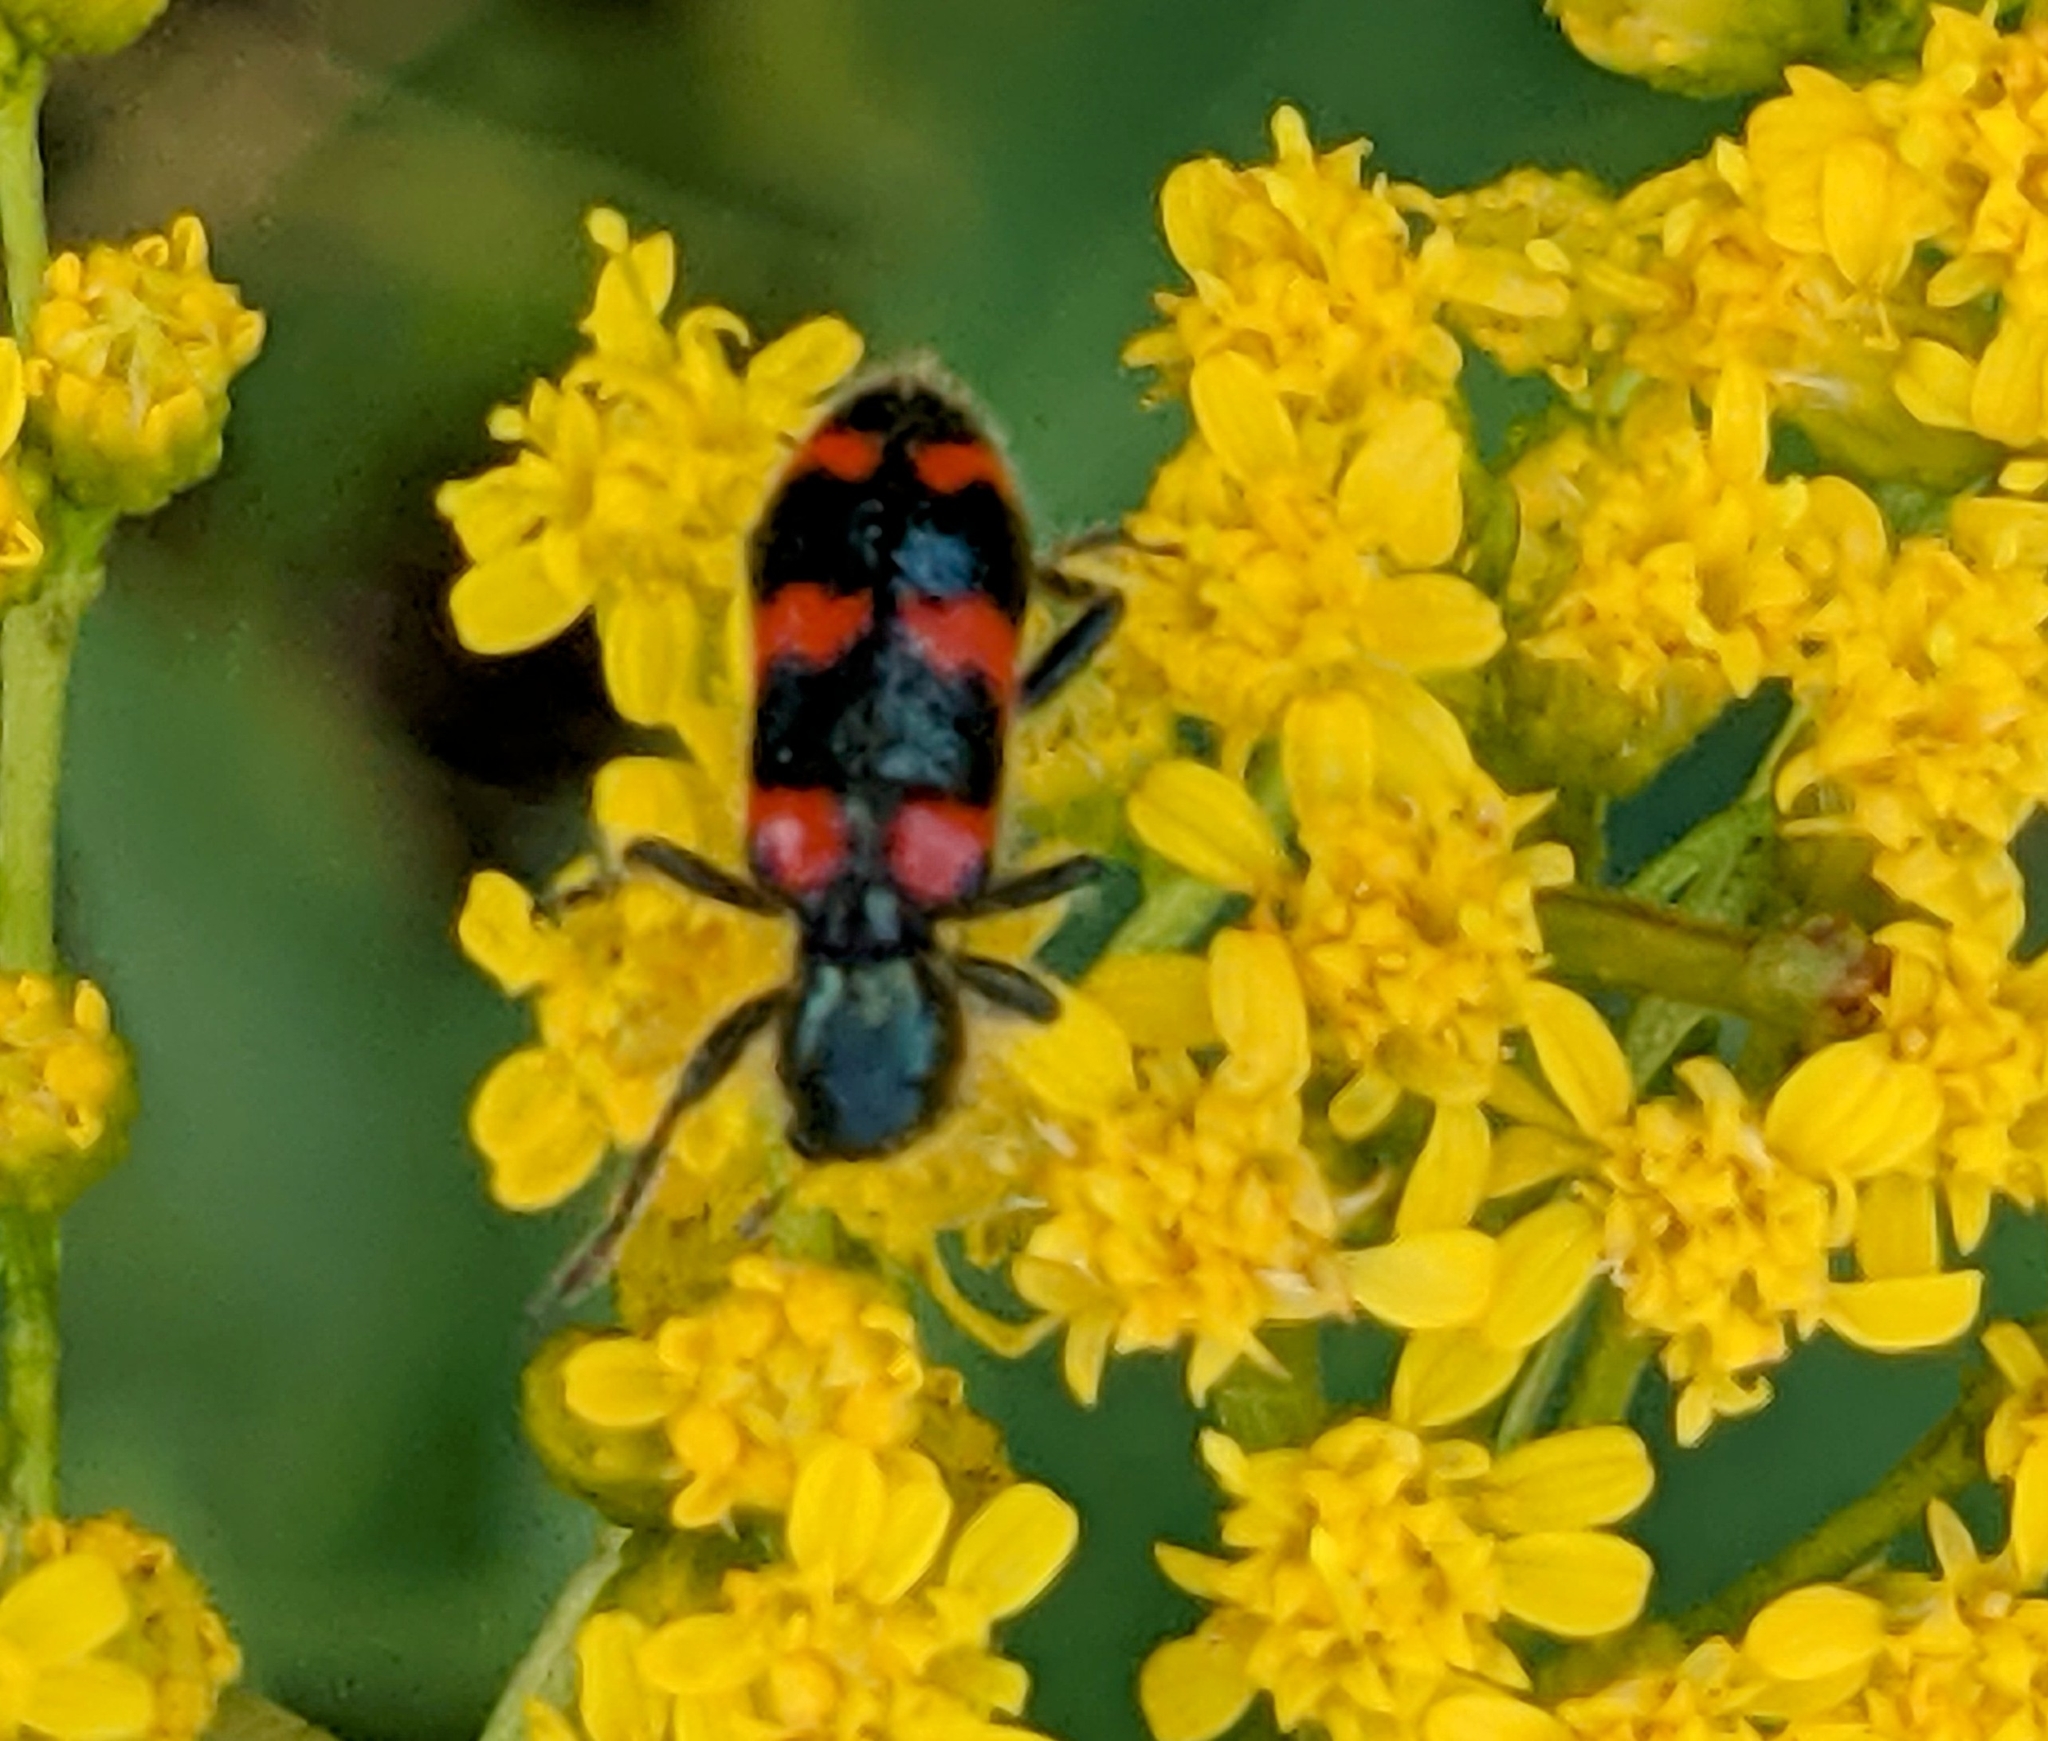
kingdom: Animalia
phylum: Arthropoda
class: Insecta
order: Coleoptera
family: Cleridae
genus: Trichodes
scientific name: Trichodes nutalli
